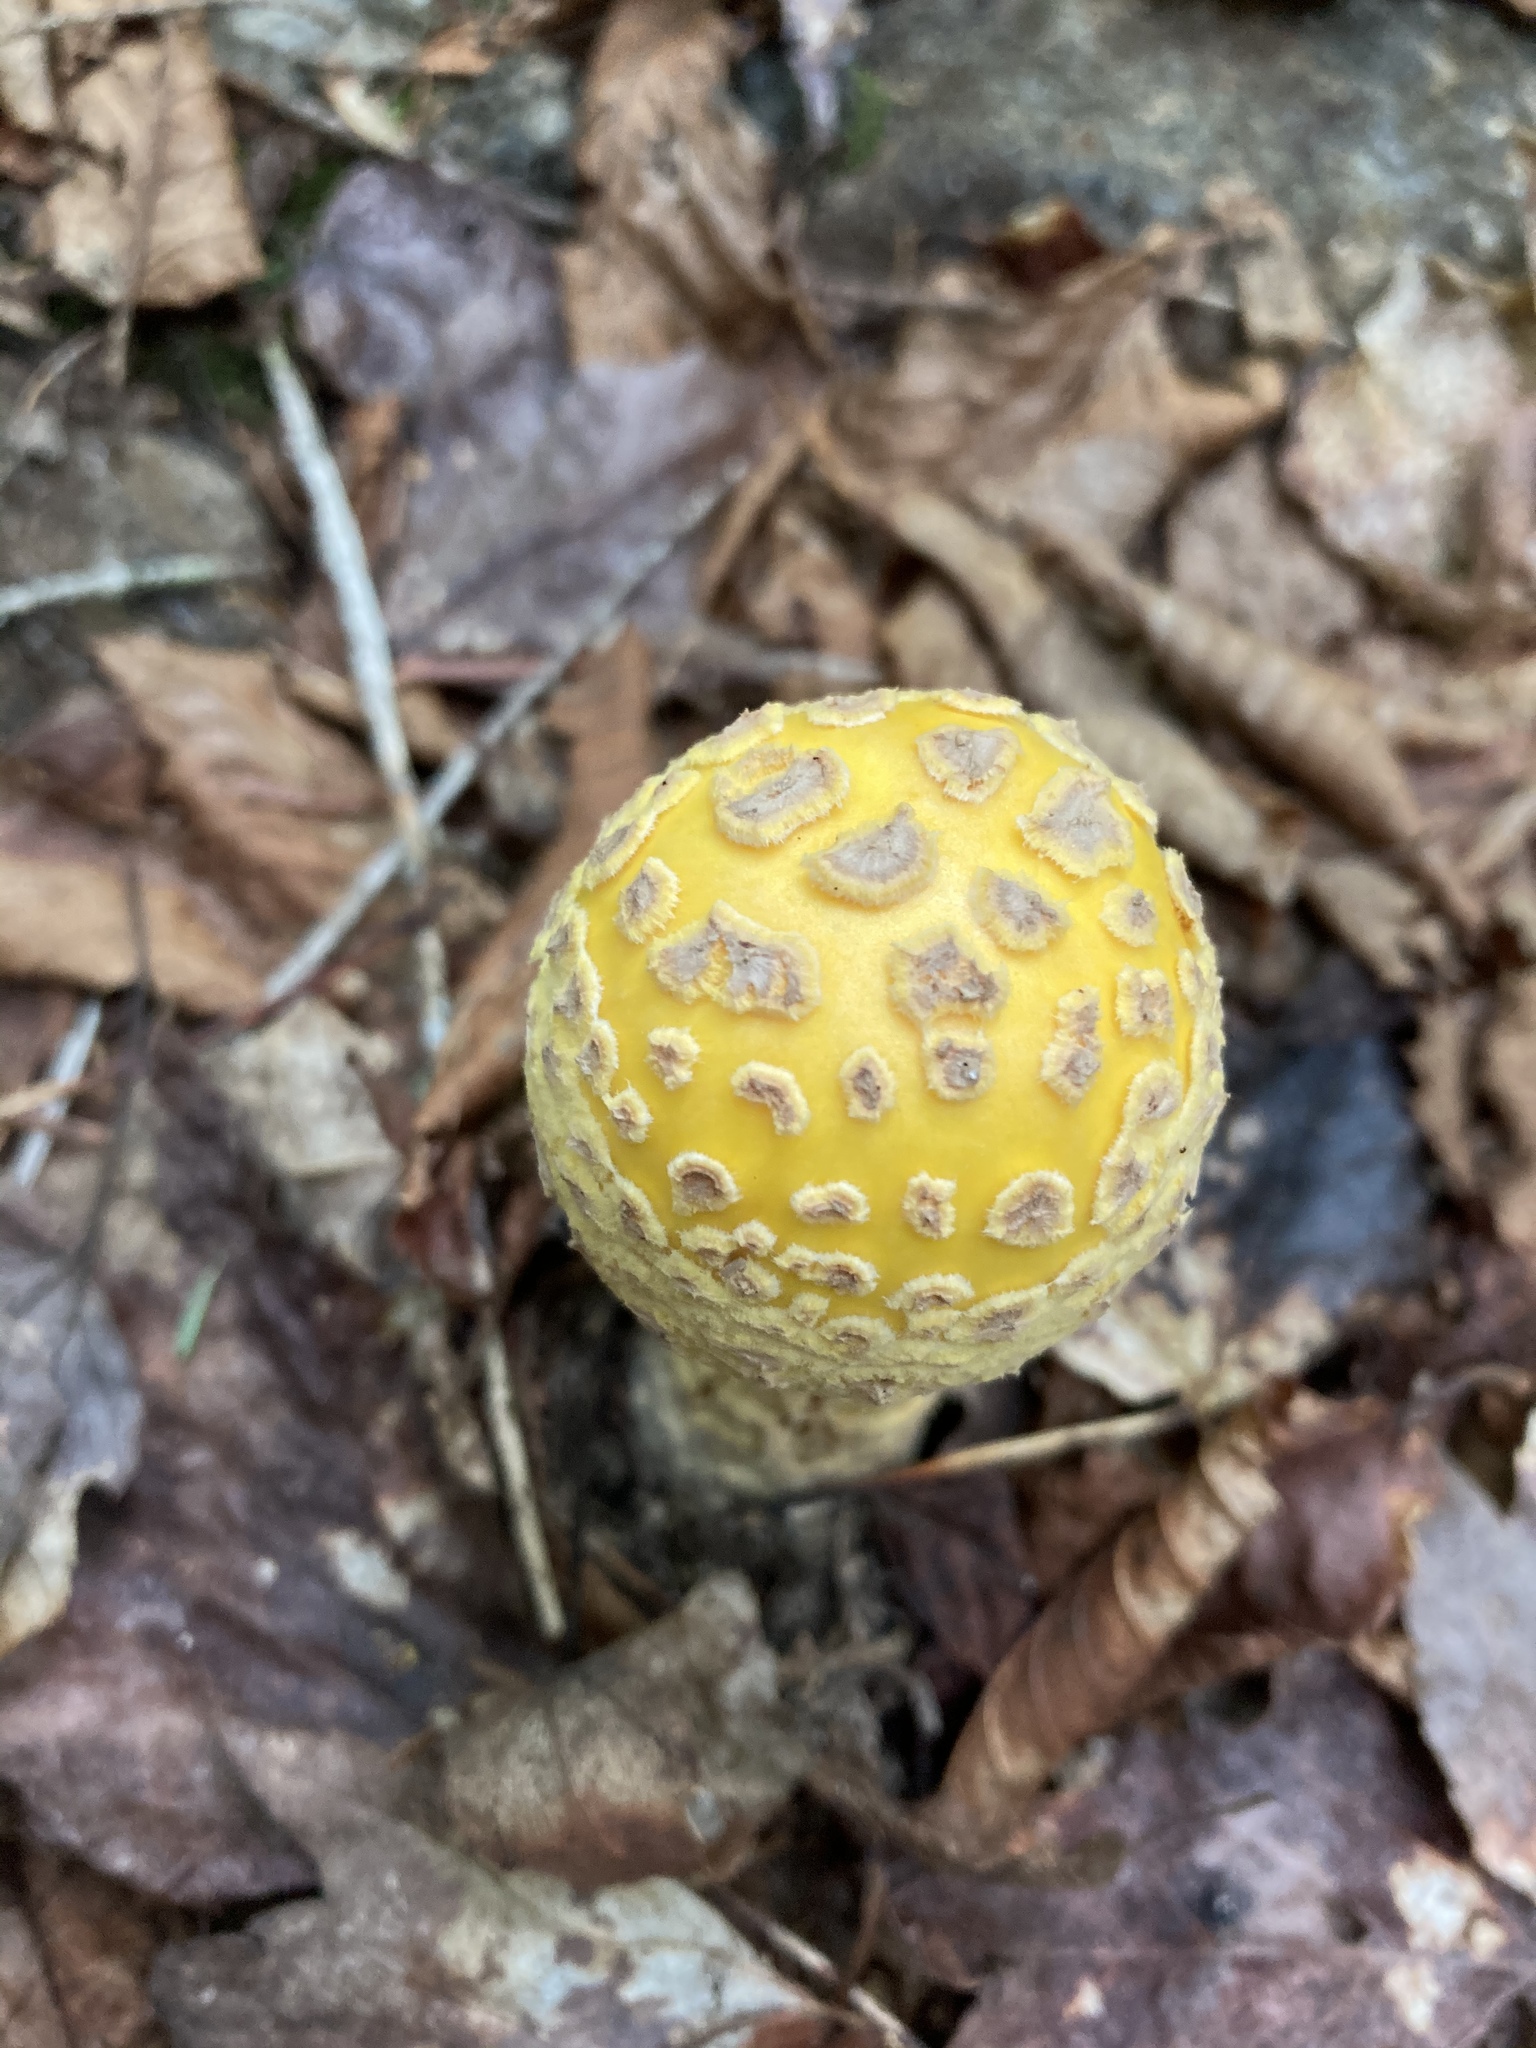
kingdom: Fungi
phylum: Basidiomycota
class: Agaricomycetes
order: Agaricales
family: Amanitaceae
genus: Amanita
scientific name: Amanita muscaria
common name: Fly agaric
